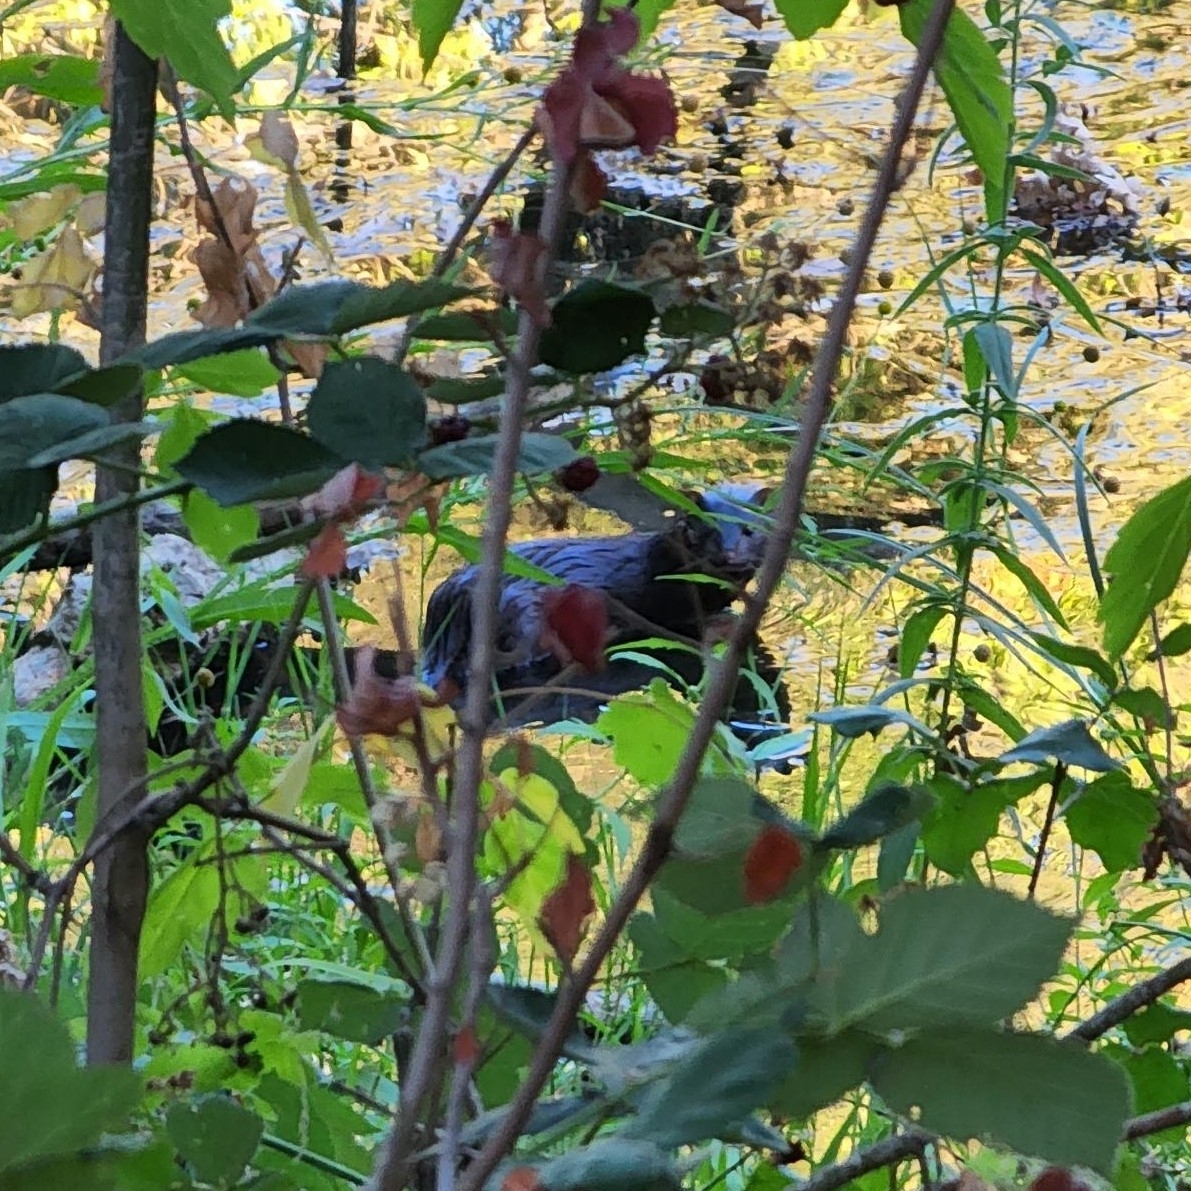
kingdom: Animalia
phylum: Chordata
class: Mammalia
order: Carnivora
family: Mustelidae
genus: Mustela
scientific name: Mustela
